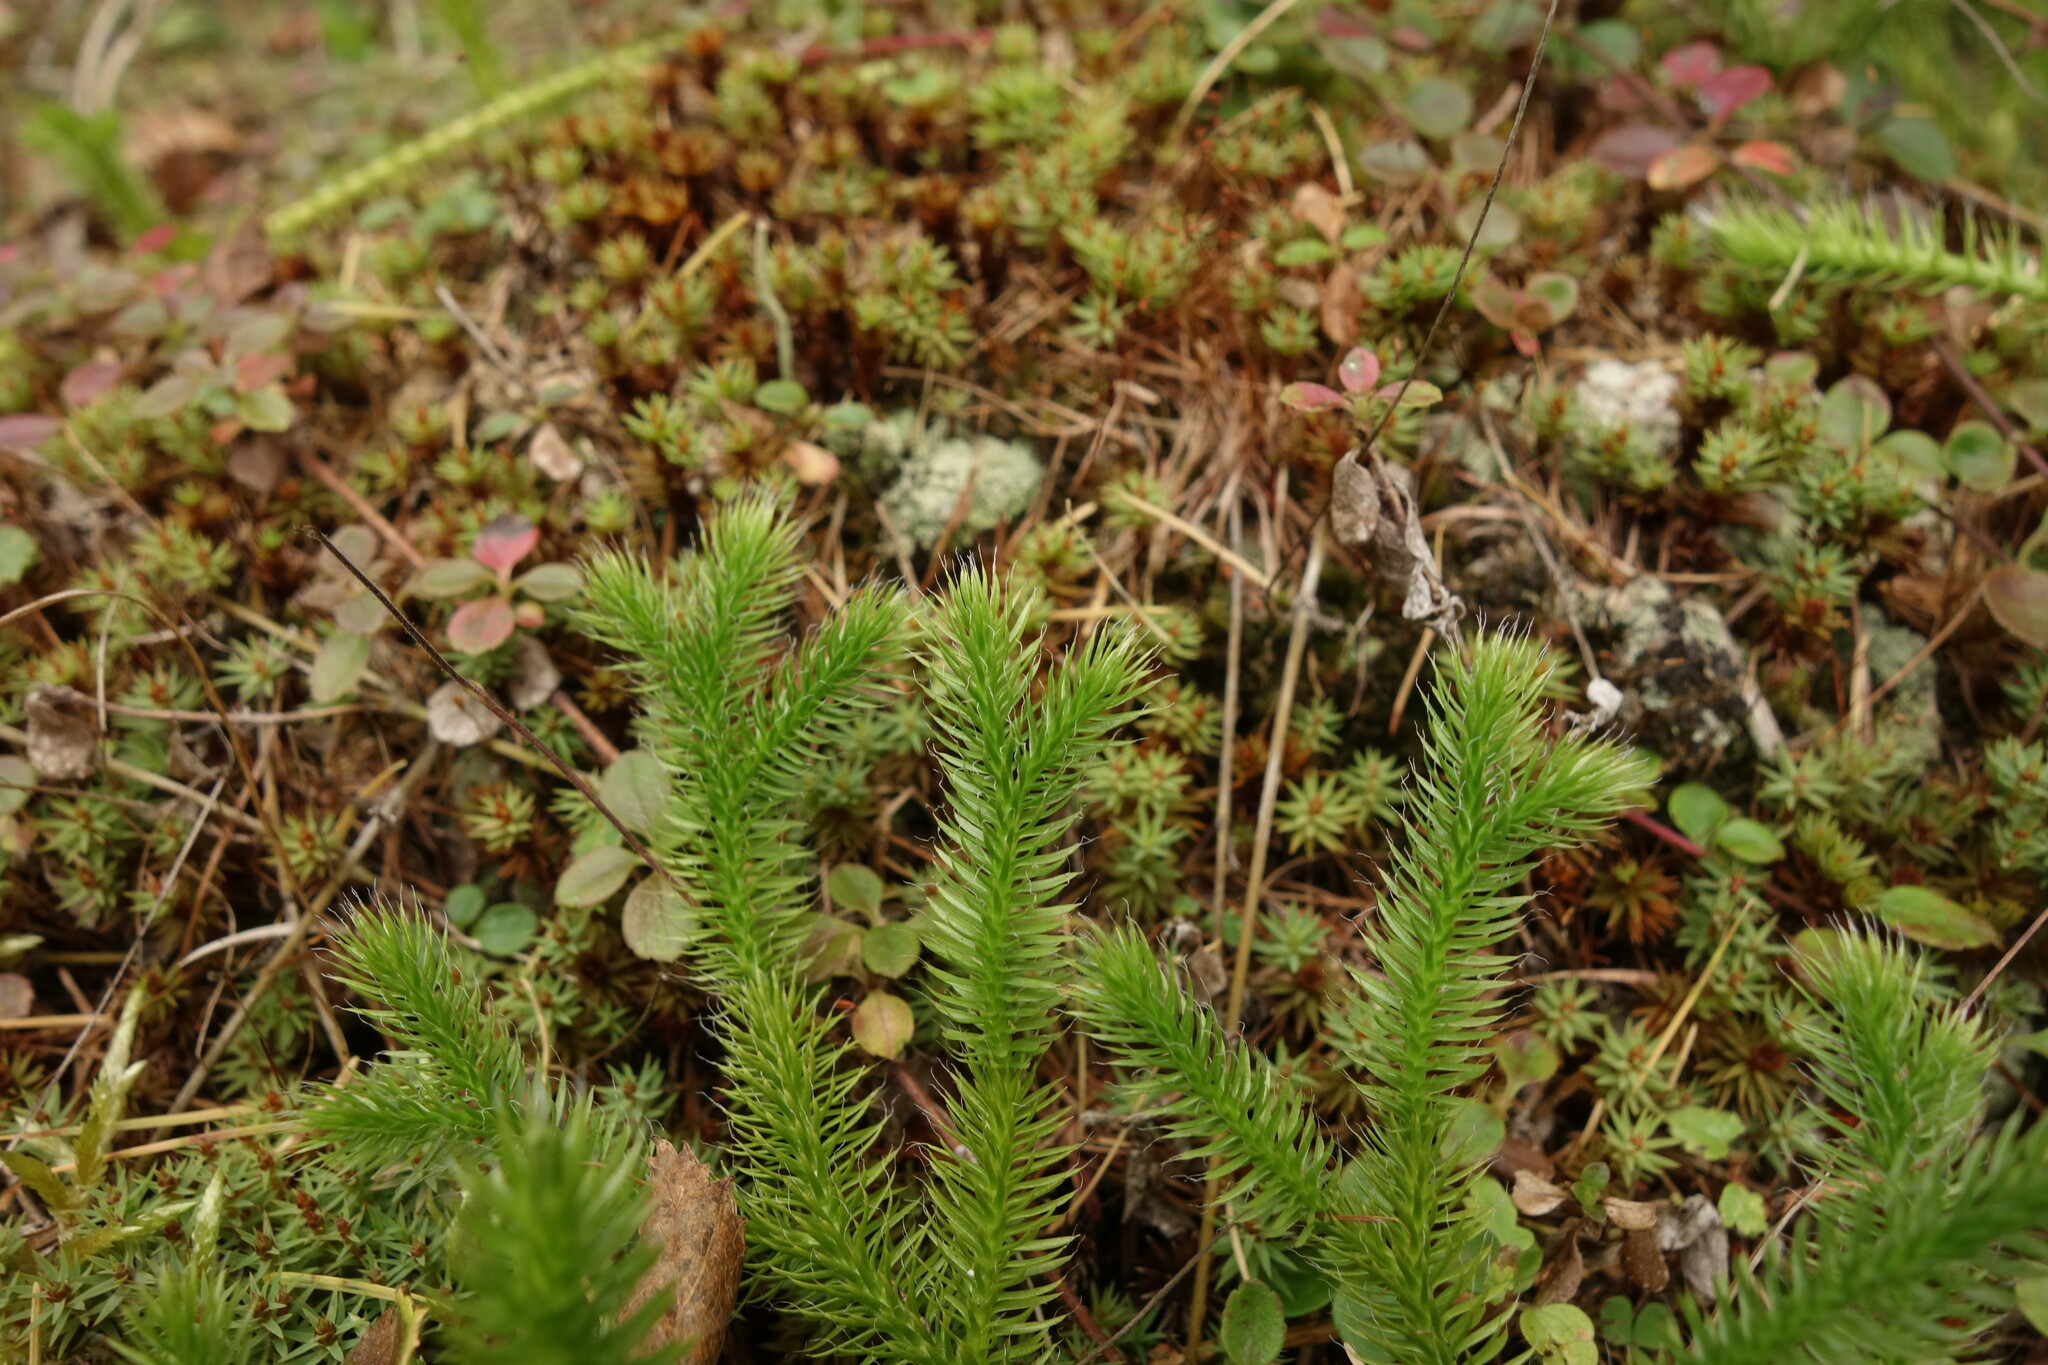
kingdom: Plantae
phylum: Tracheophyta
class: Lycopodiopsida
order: Lycopodiales
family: Lycopodiaceae
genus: Lycopodium
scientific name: Lycopodium clavatum
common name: Stag's-horn clubmoss
